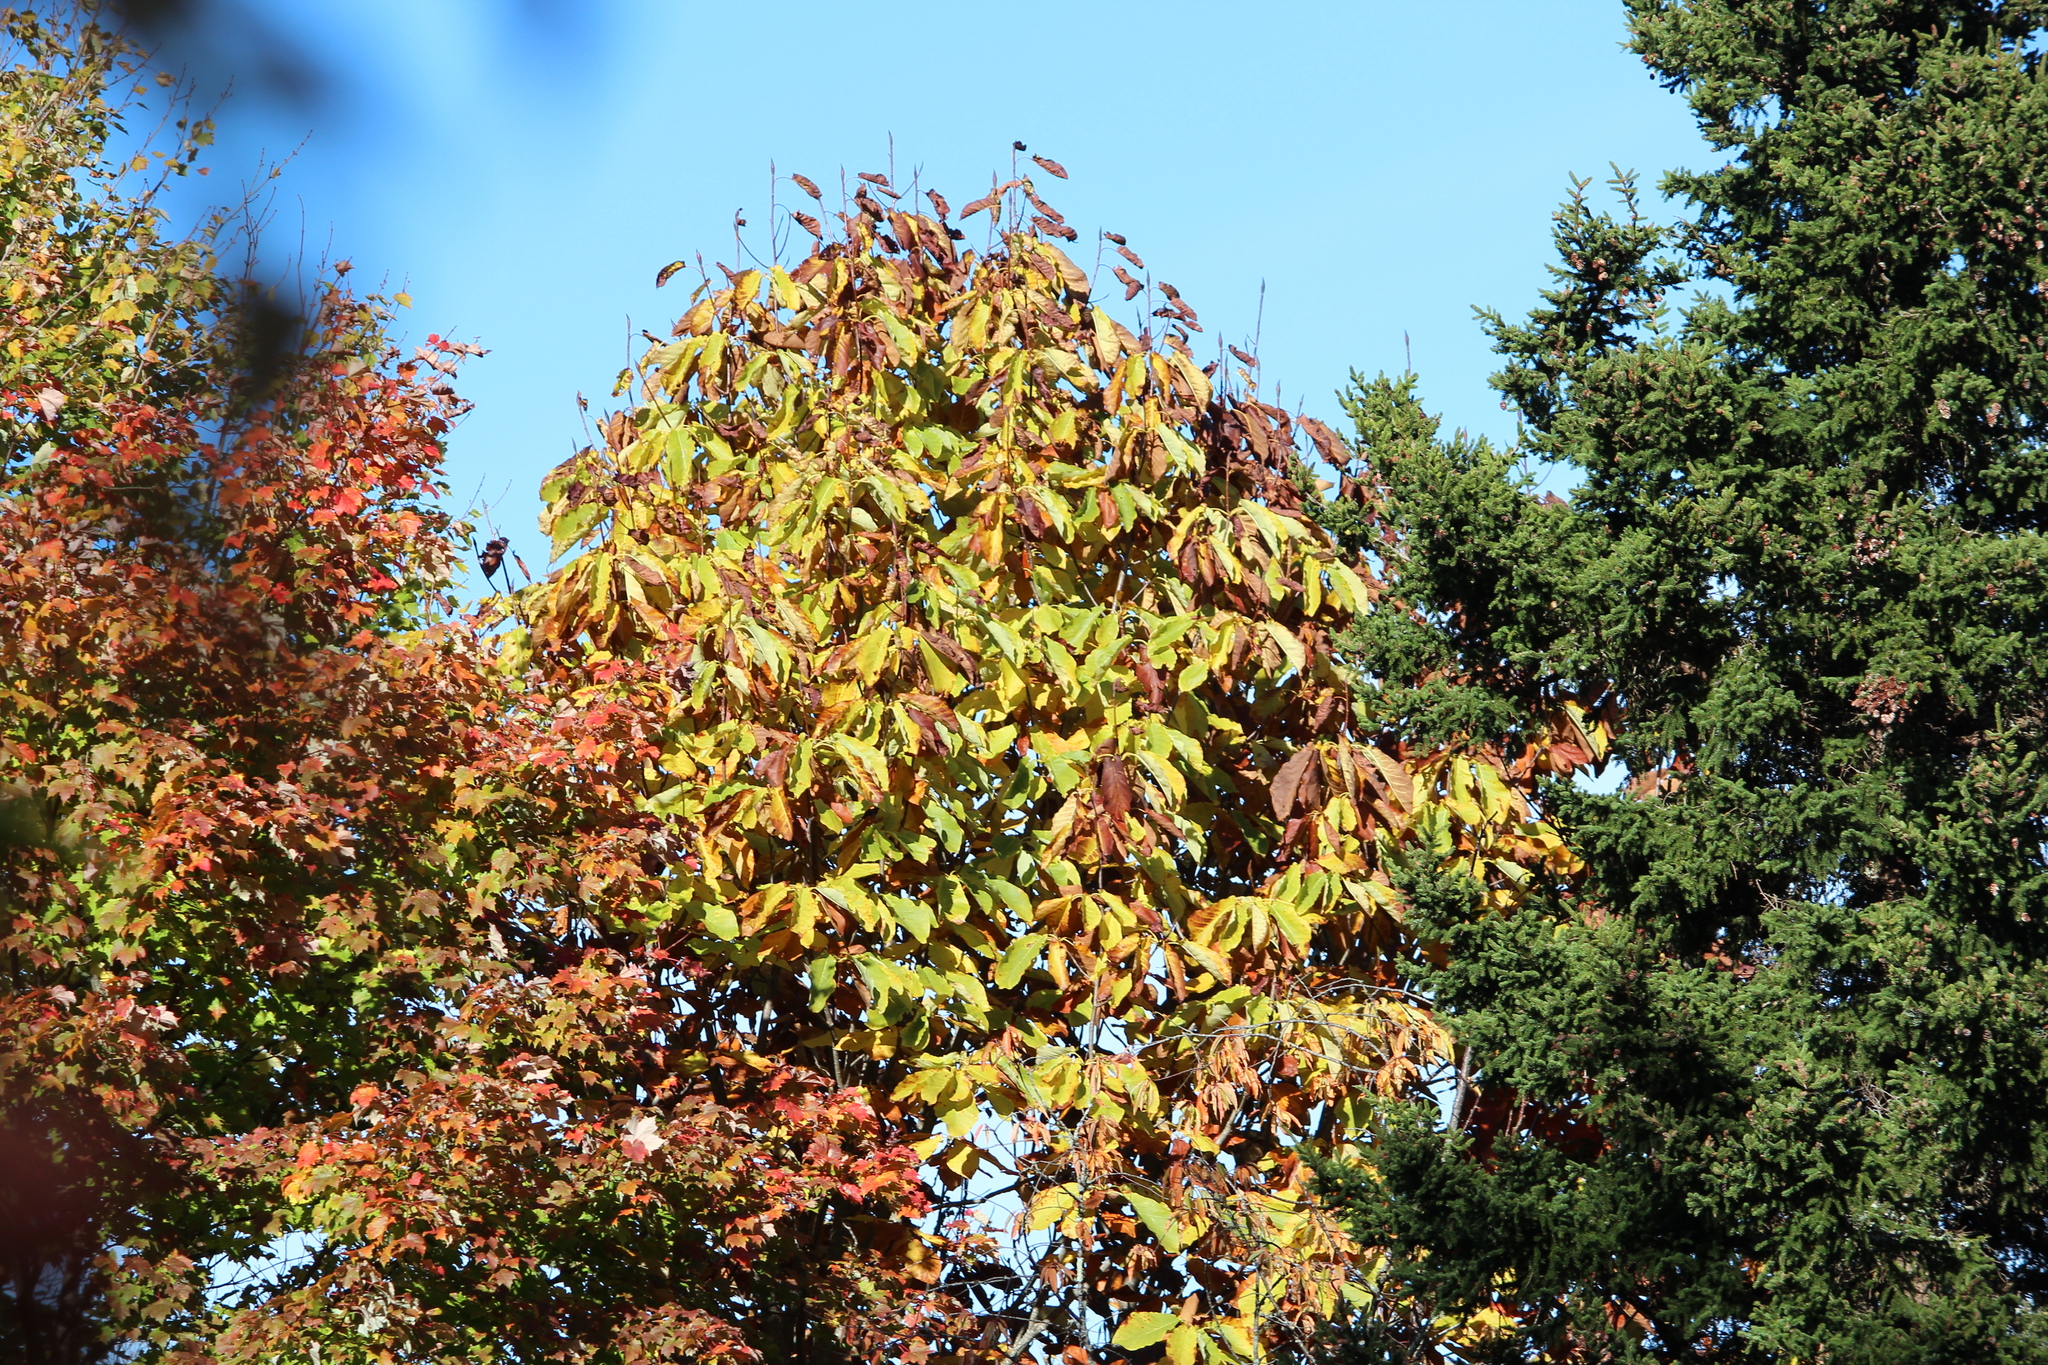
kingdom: Plantae
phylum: Tracheophyta
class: Magnoliopsida
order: Fagales
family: Fagaceae
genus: Quercus
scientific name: Quercus montana
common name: Chestnut oak
